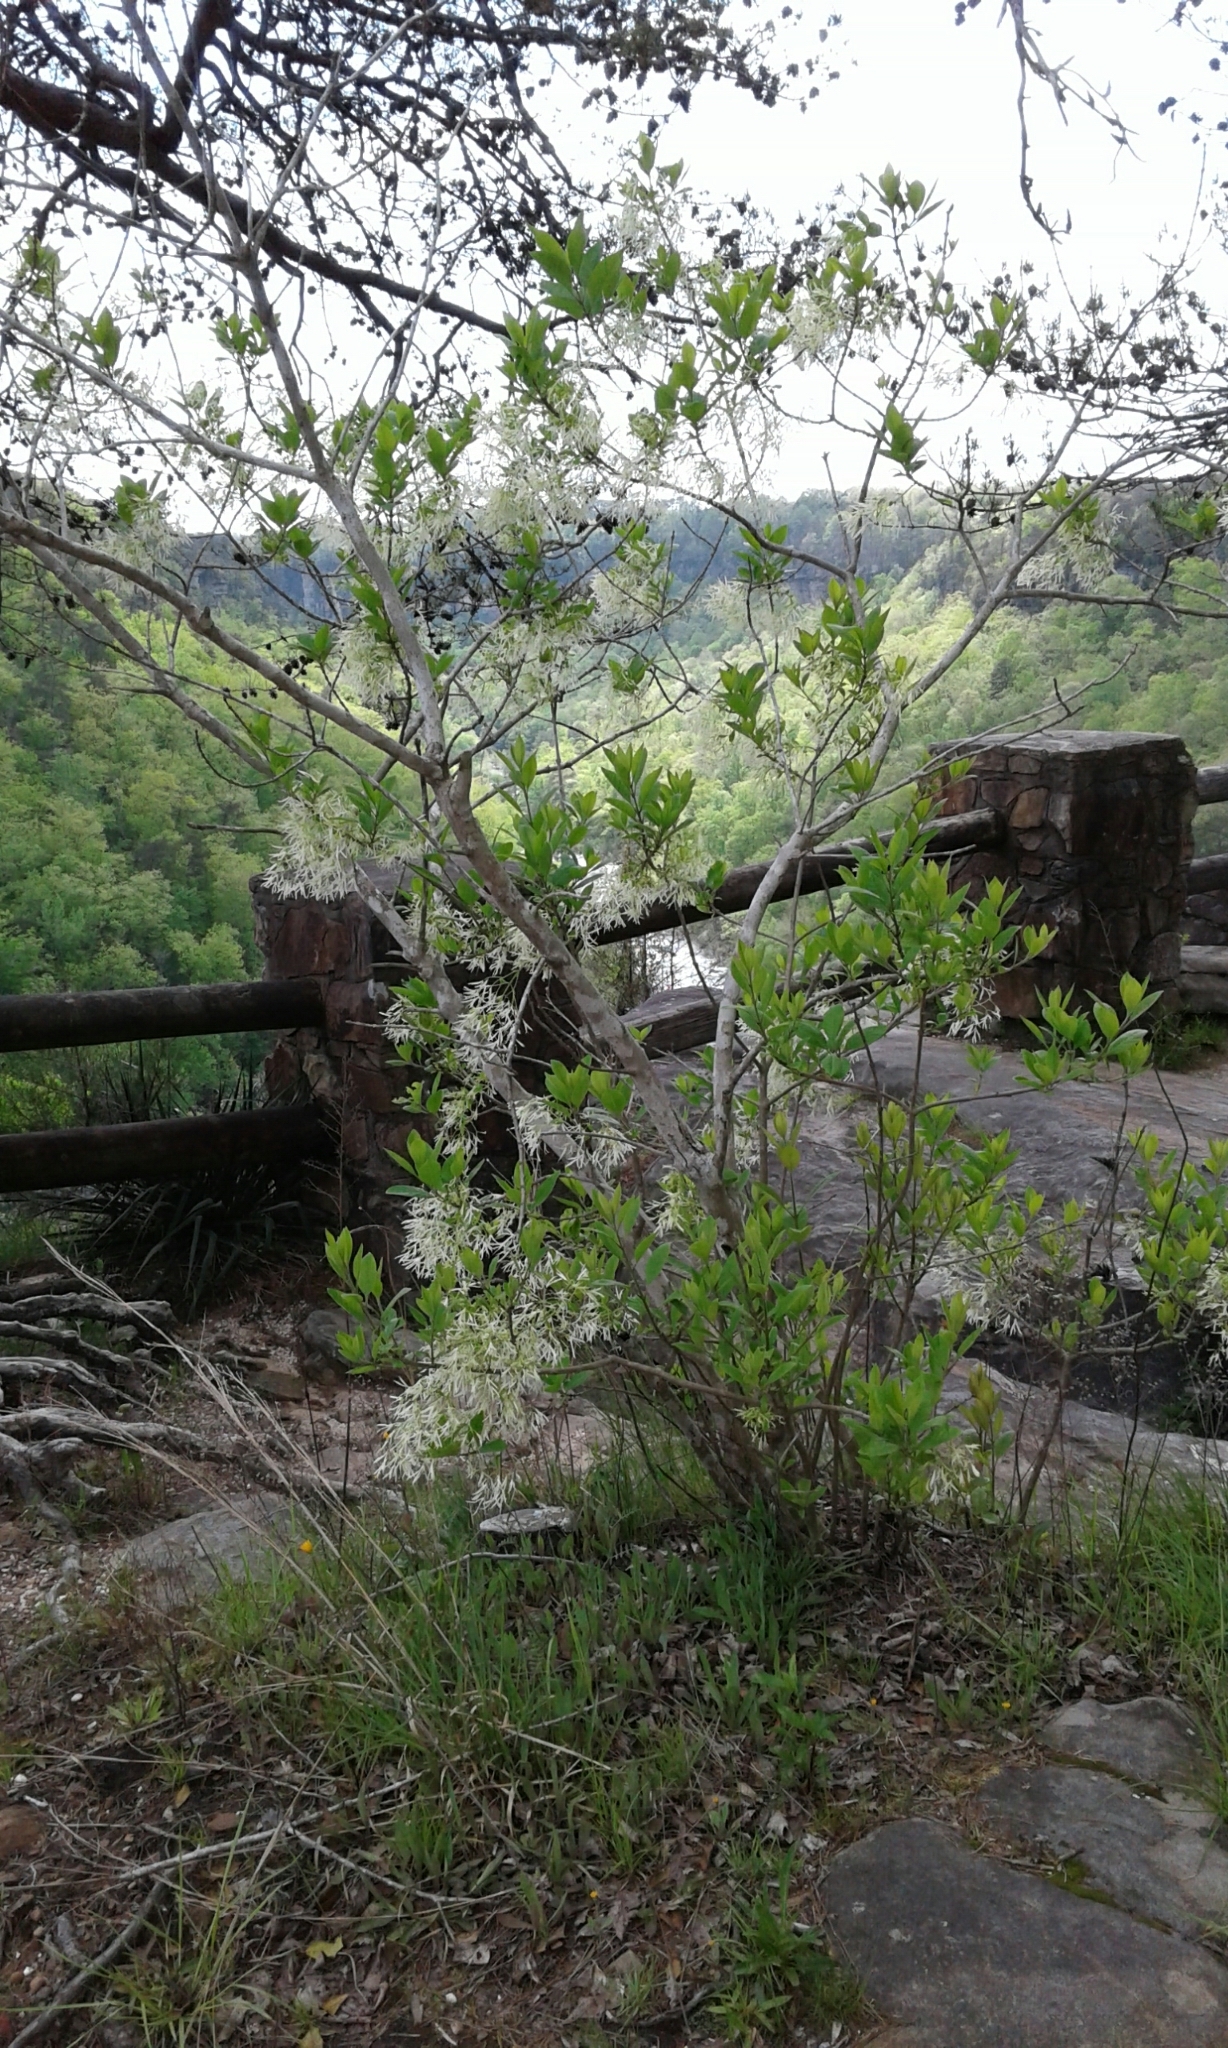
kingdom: Plantae
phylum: Tracheophyta
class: Magnoliopsida
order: Lamiales
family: Oleaceae
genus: Chionanthus
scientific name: Chionanthus virginicus
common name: American fringetree
